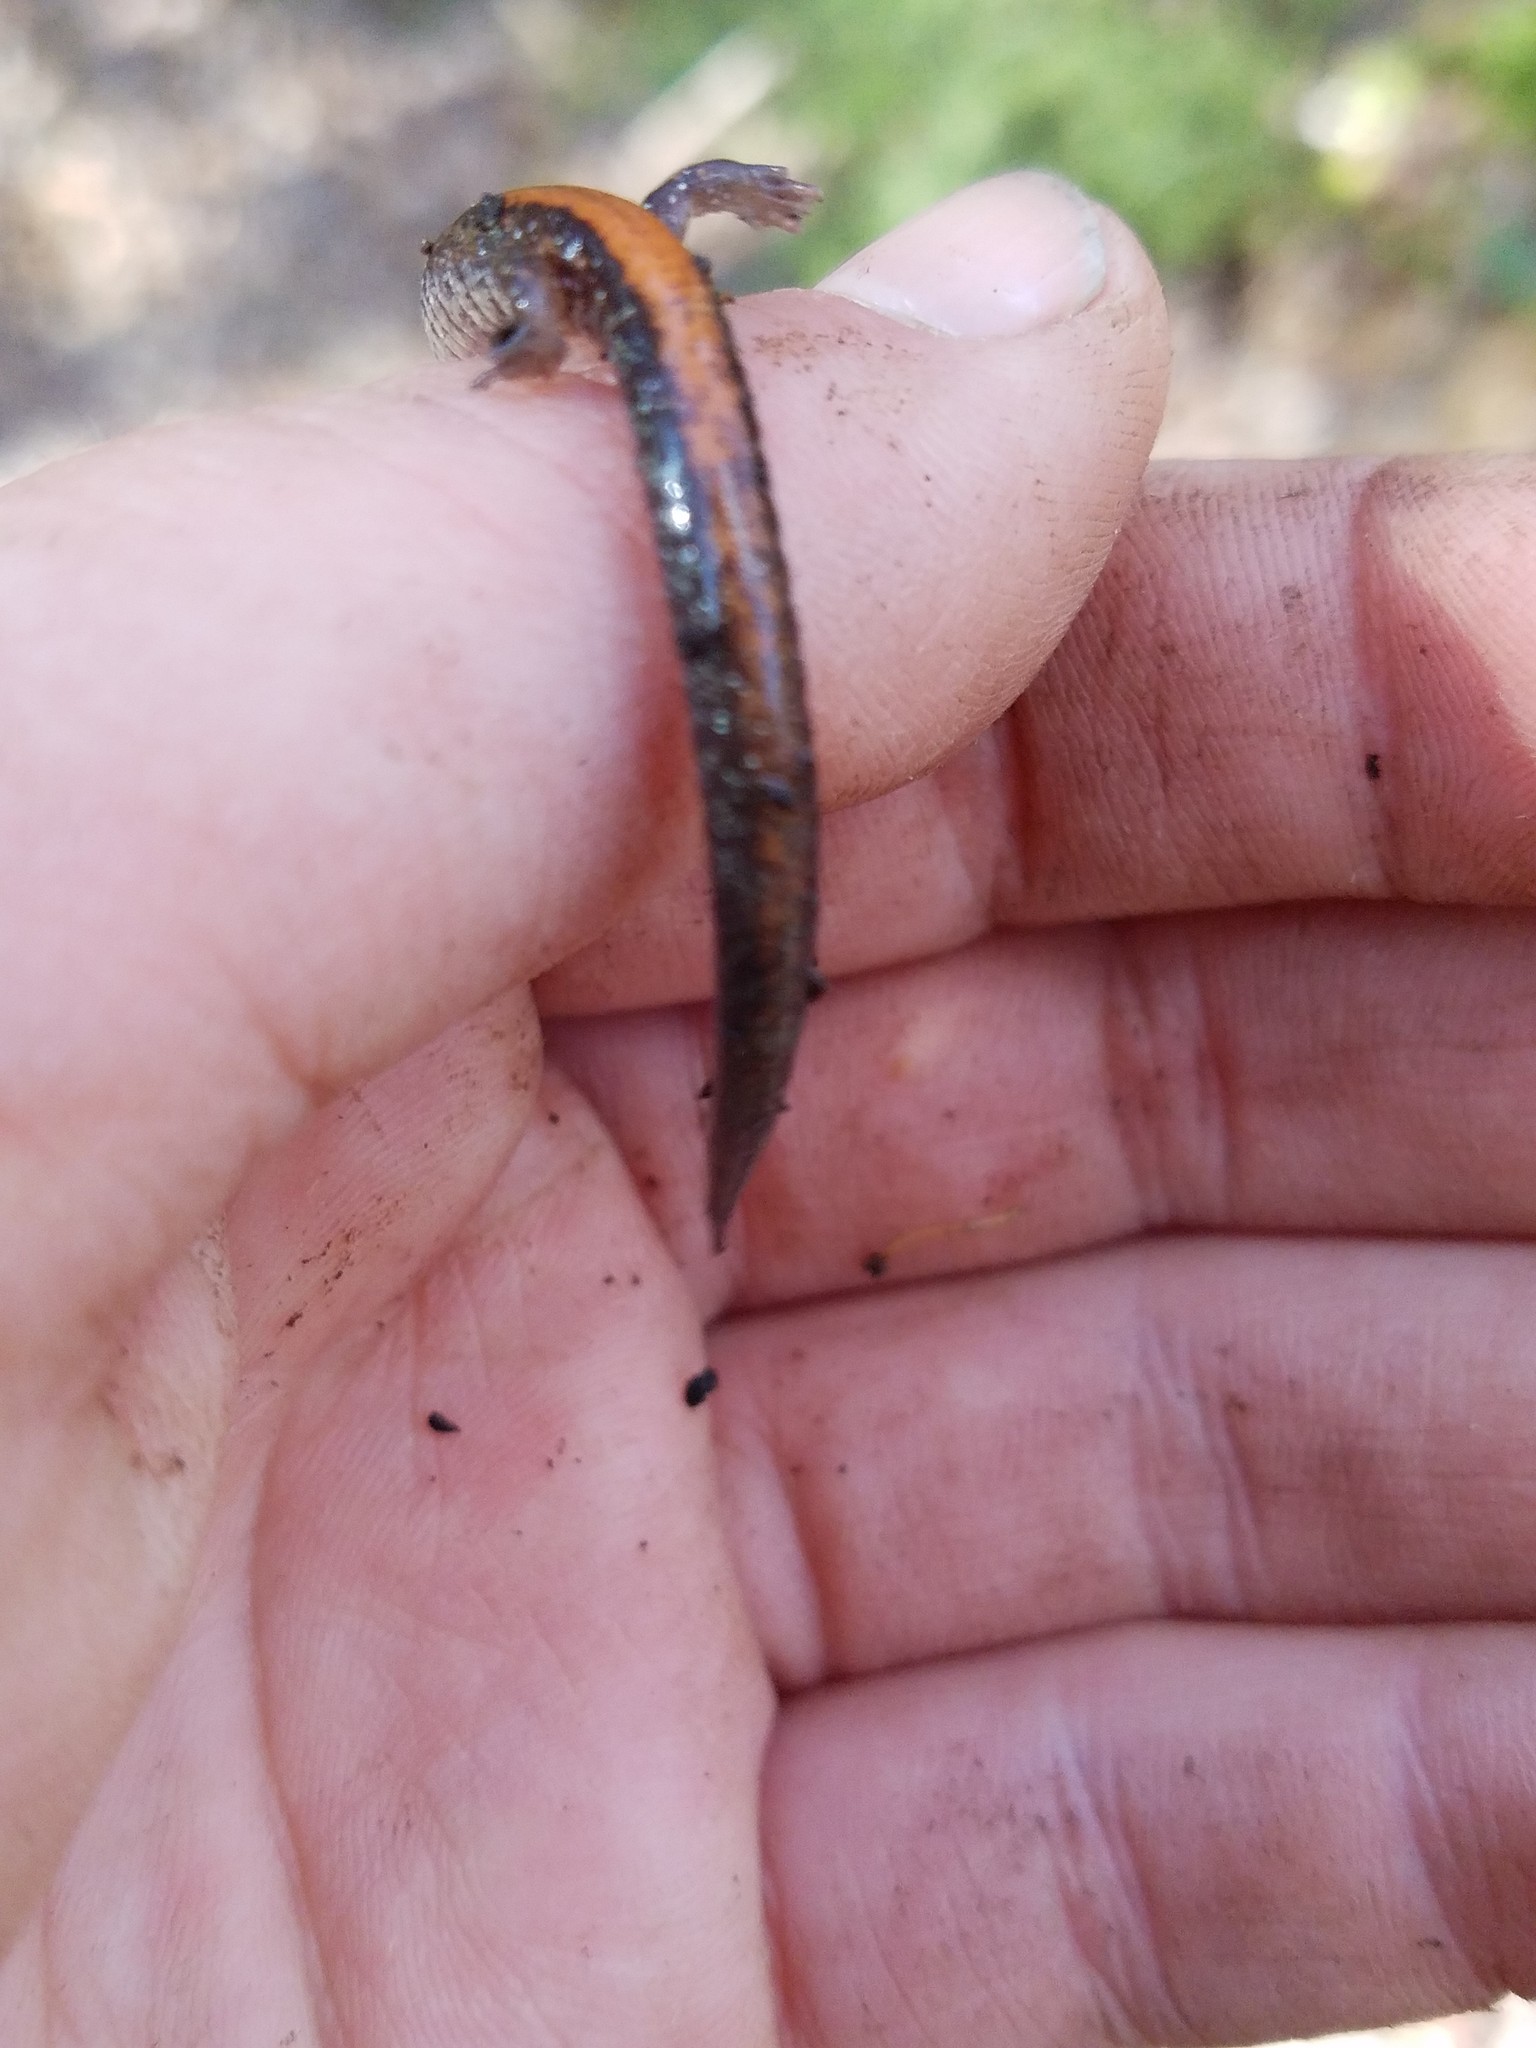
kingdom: Animalia
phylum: Chordata
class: Amphibia
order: Caudata
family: Plethodontidae
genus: Plethodon
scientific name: Plethodon cinereus
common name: Redback salamander
